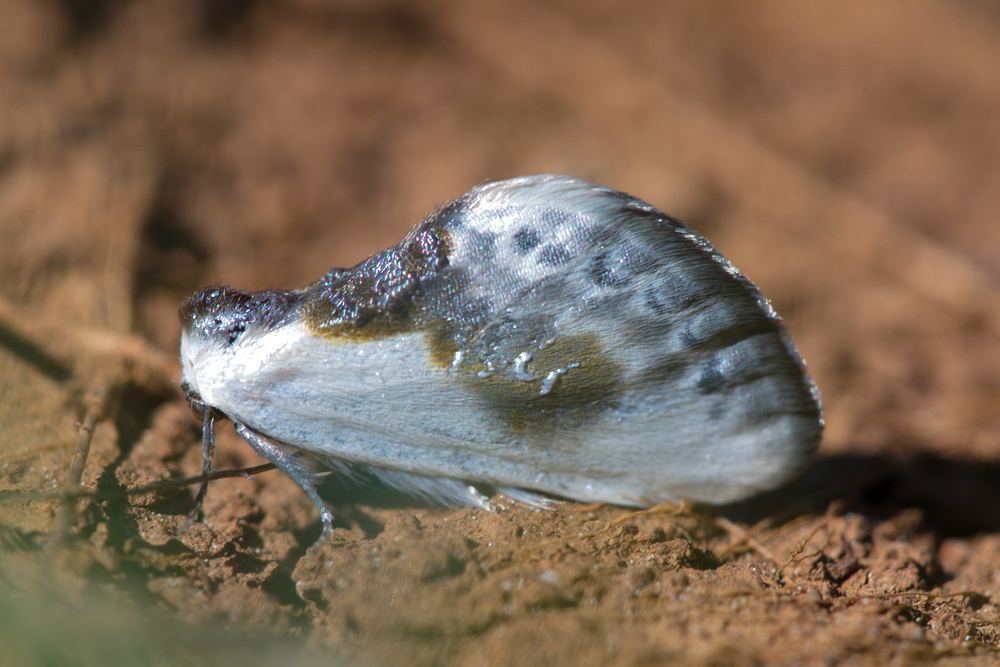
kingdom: Animalia
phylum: Arthropoda
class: Insecta
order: Lepidoptera
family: Drepanidae
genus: Cilix
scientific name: Cilix glaucata
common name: Chinese character
